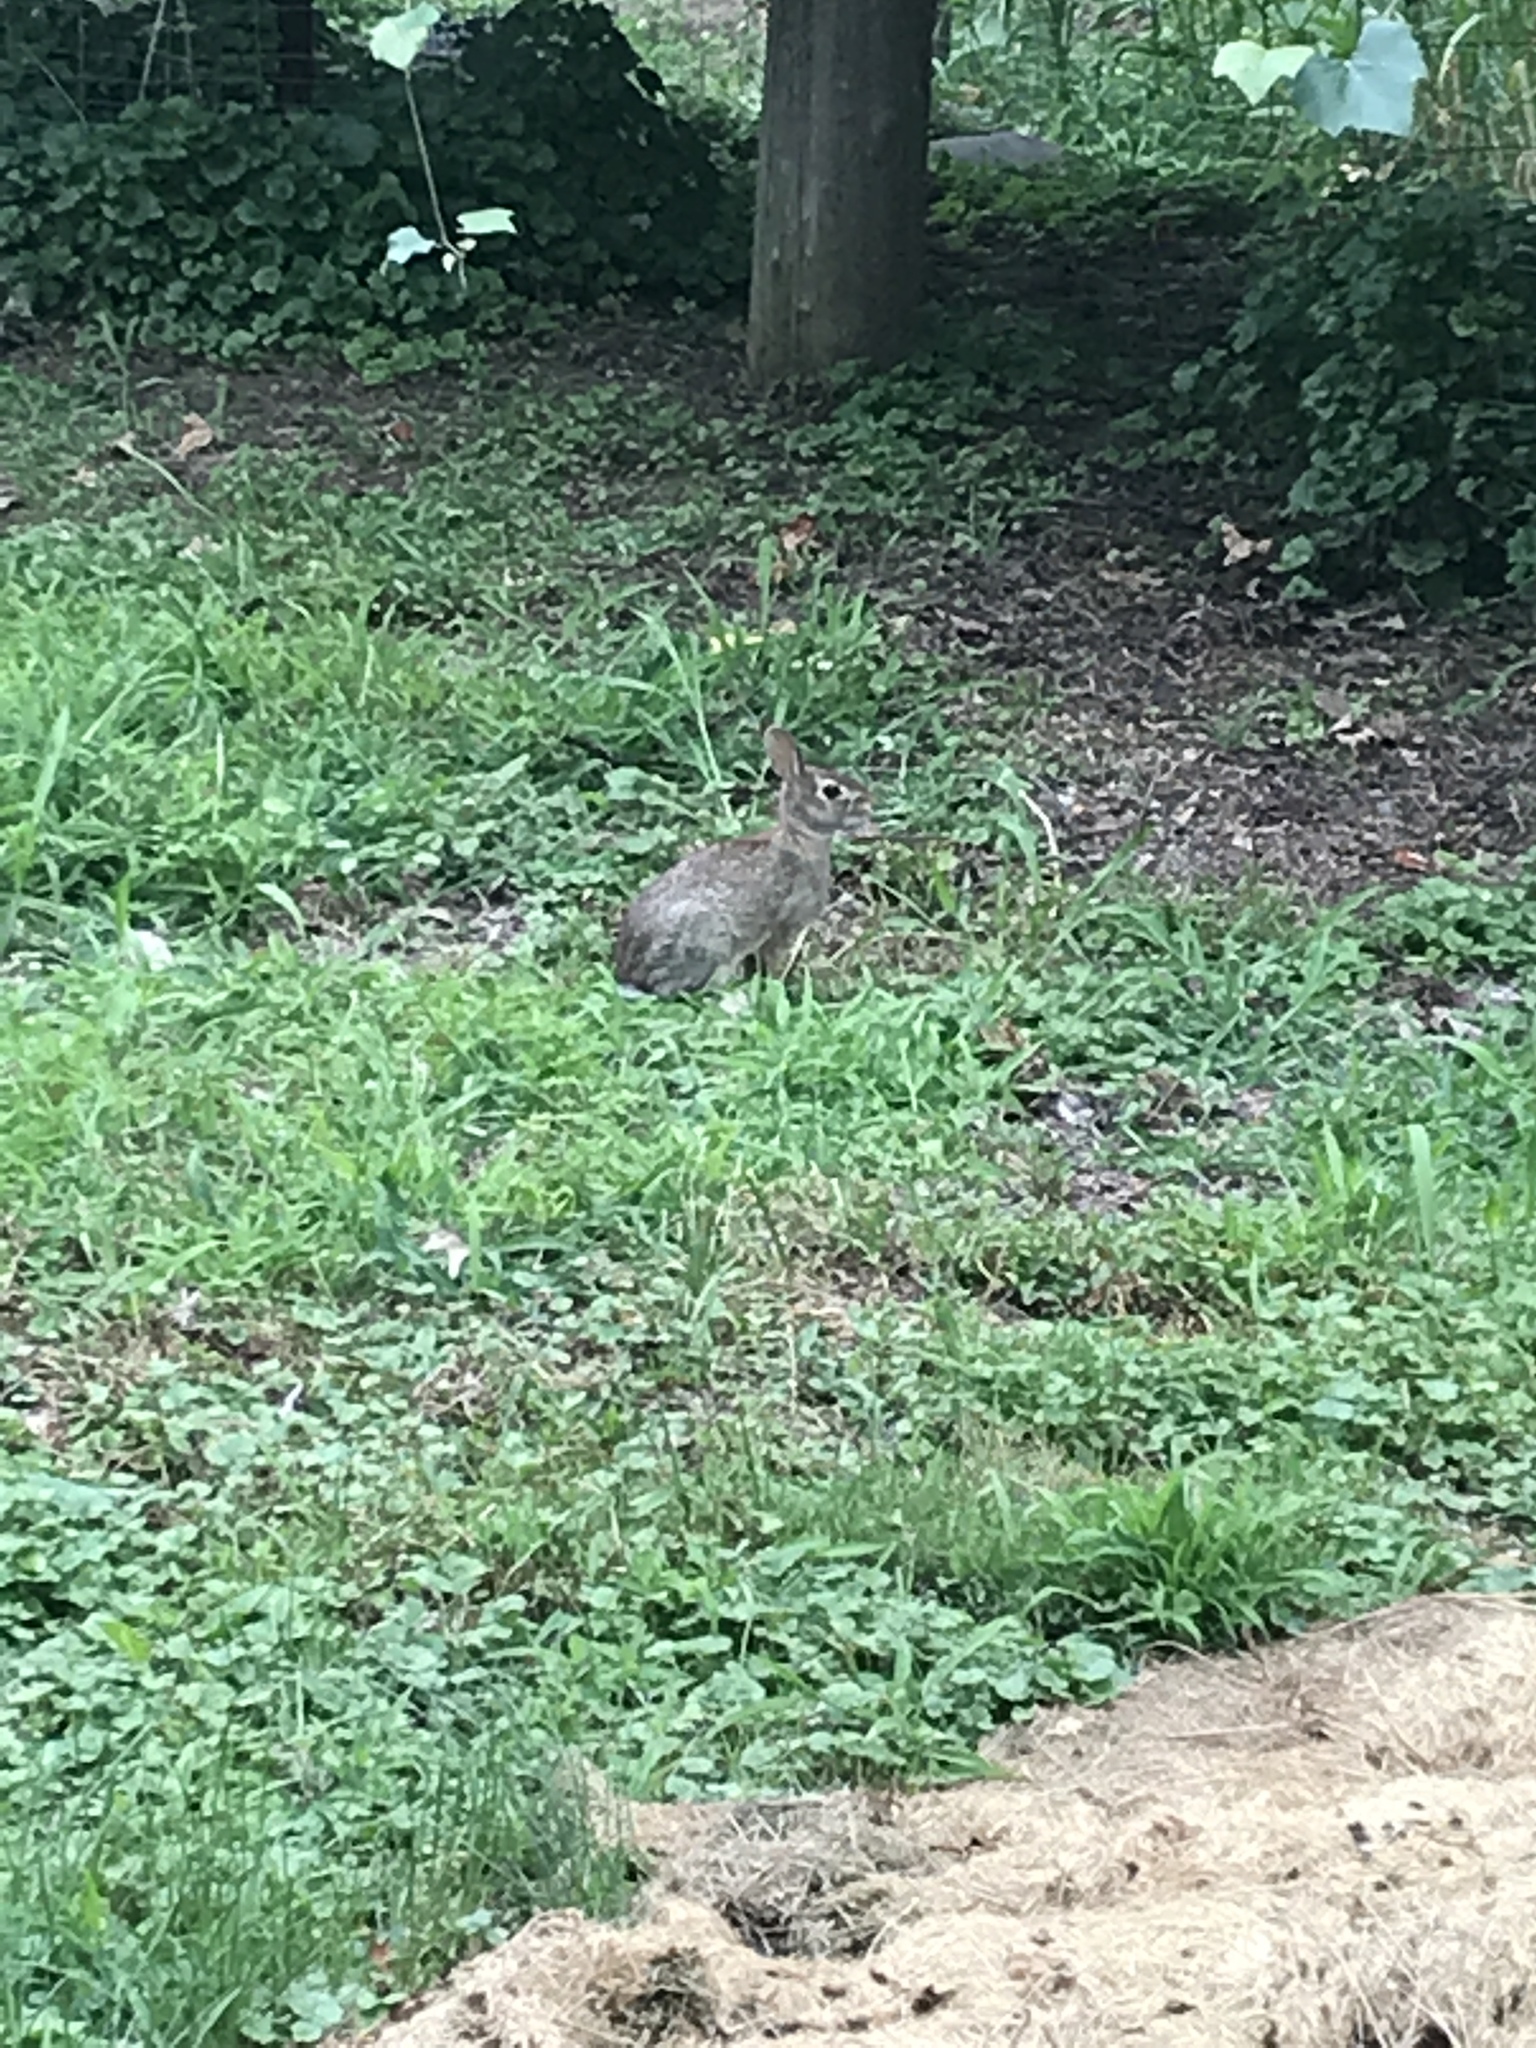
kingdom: Animalia
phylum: Chordata
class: Mammalia
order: Lagomorpha
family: Leporidae
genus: Sylvilagus
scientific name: Sylvilagus floridanus
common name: Eastern cottontail
